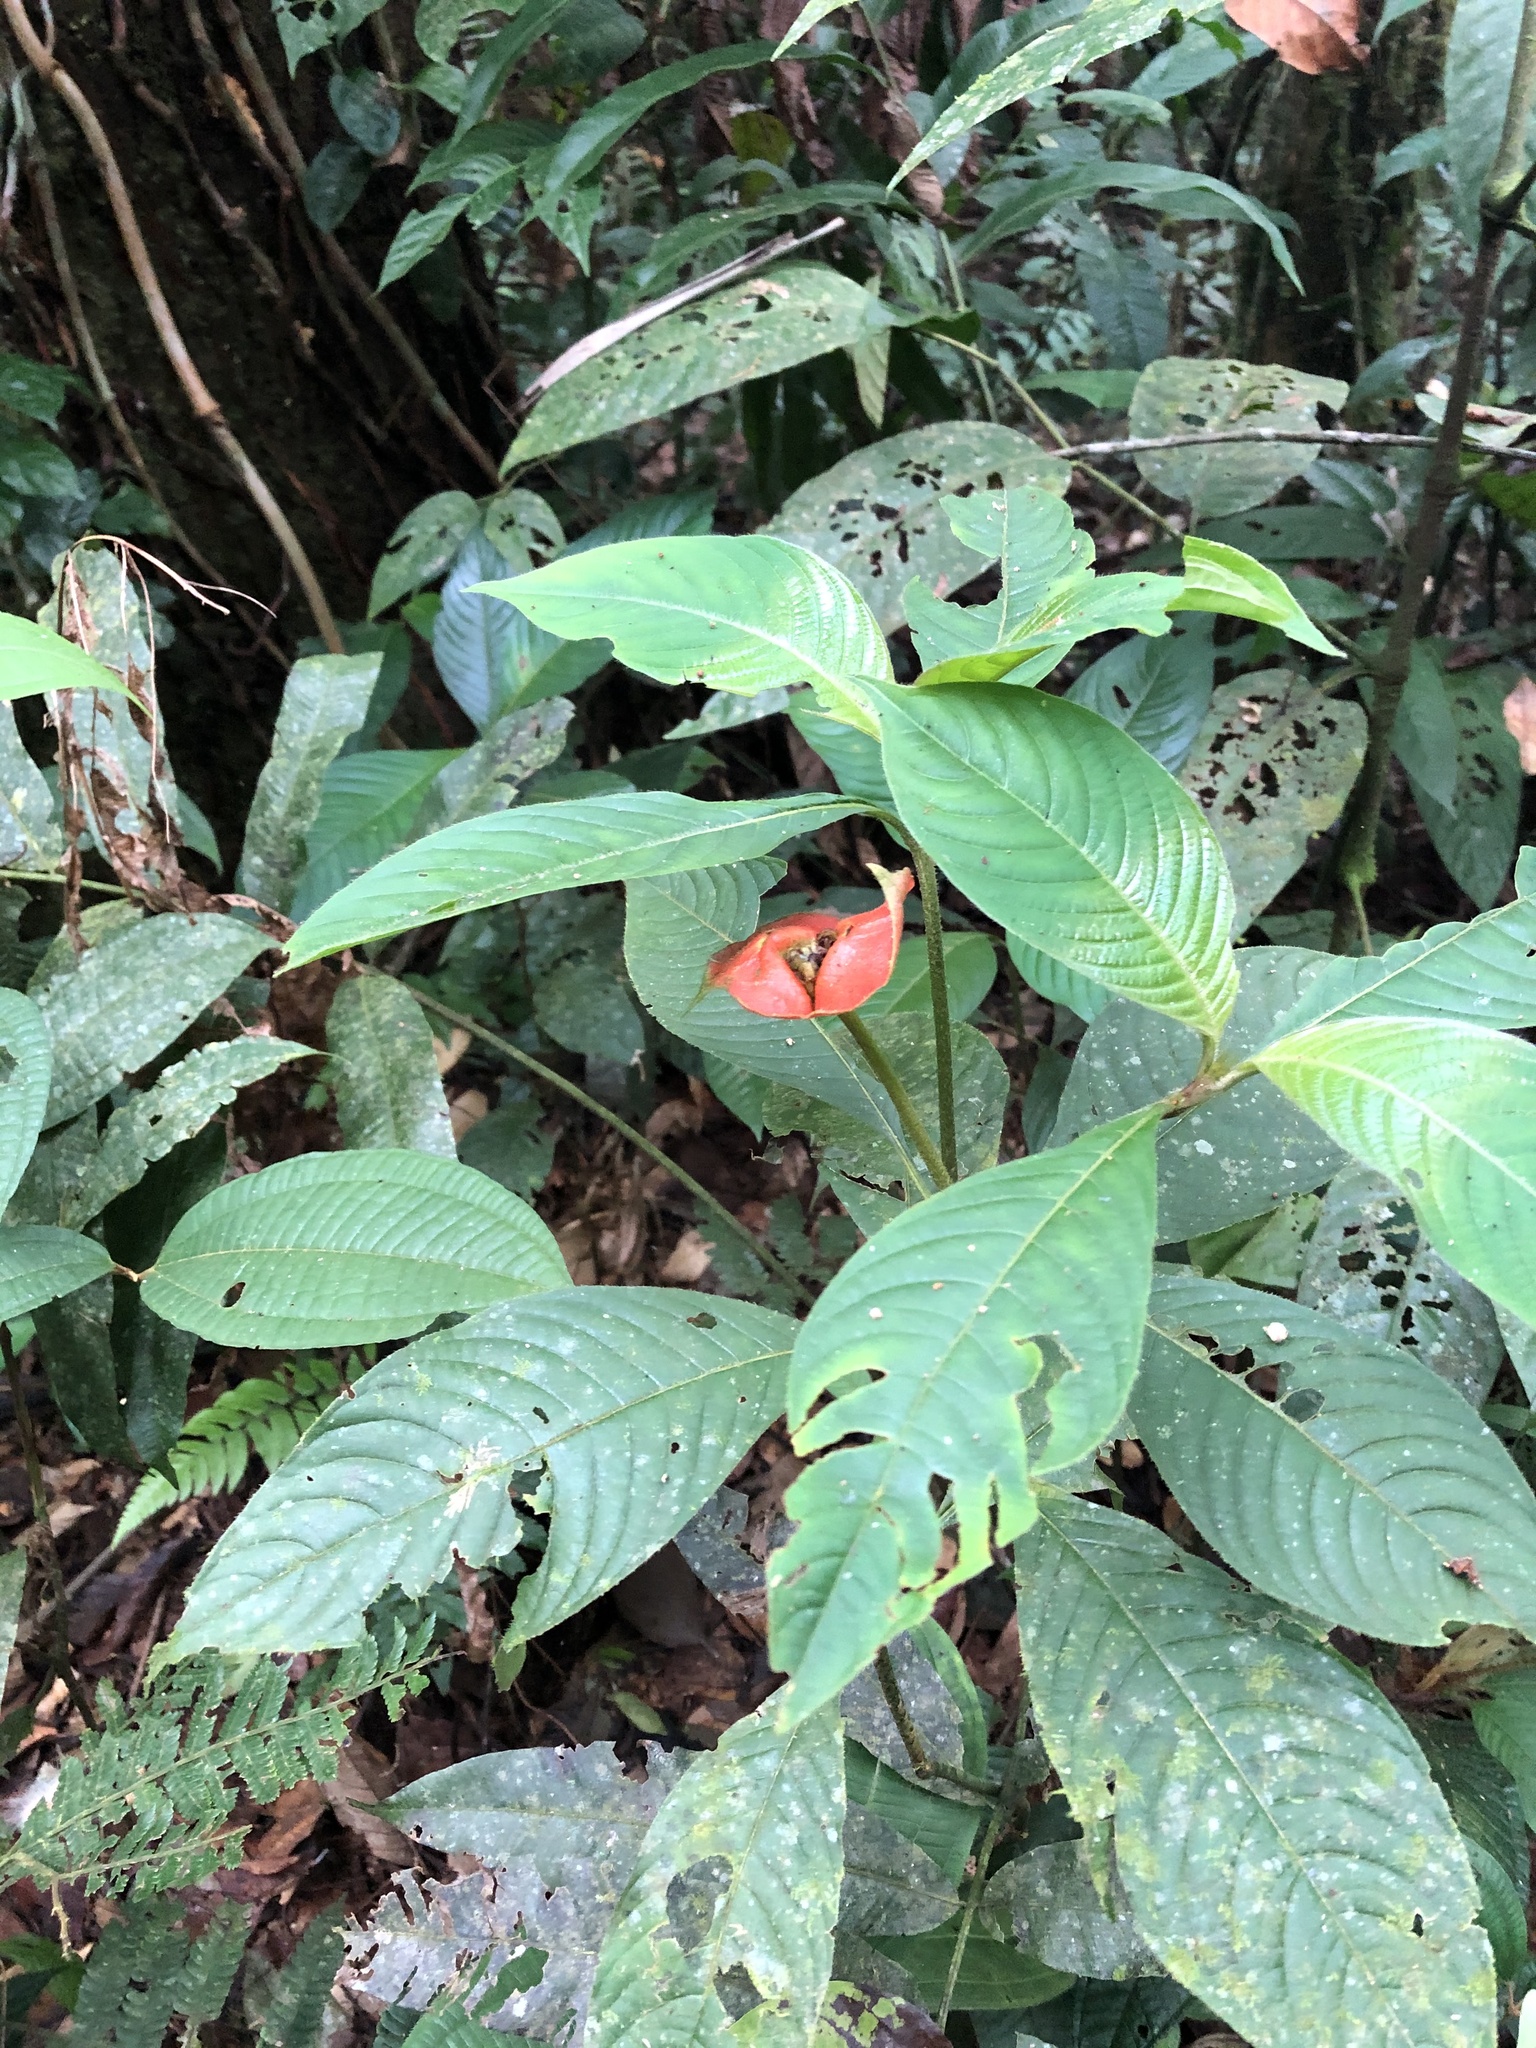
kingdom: Plantae
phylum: Tracheophyta
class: Magnoliopsida
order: Gentianales
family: Rubiaceae
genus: Palicourea
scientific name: Palicourea tomentosa
